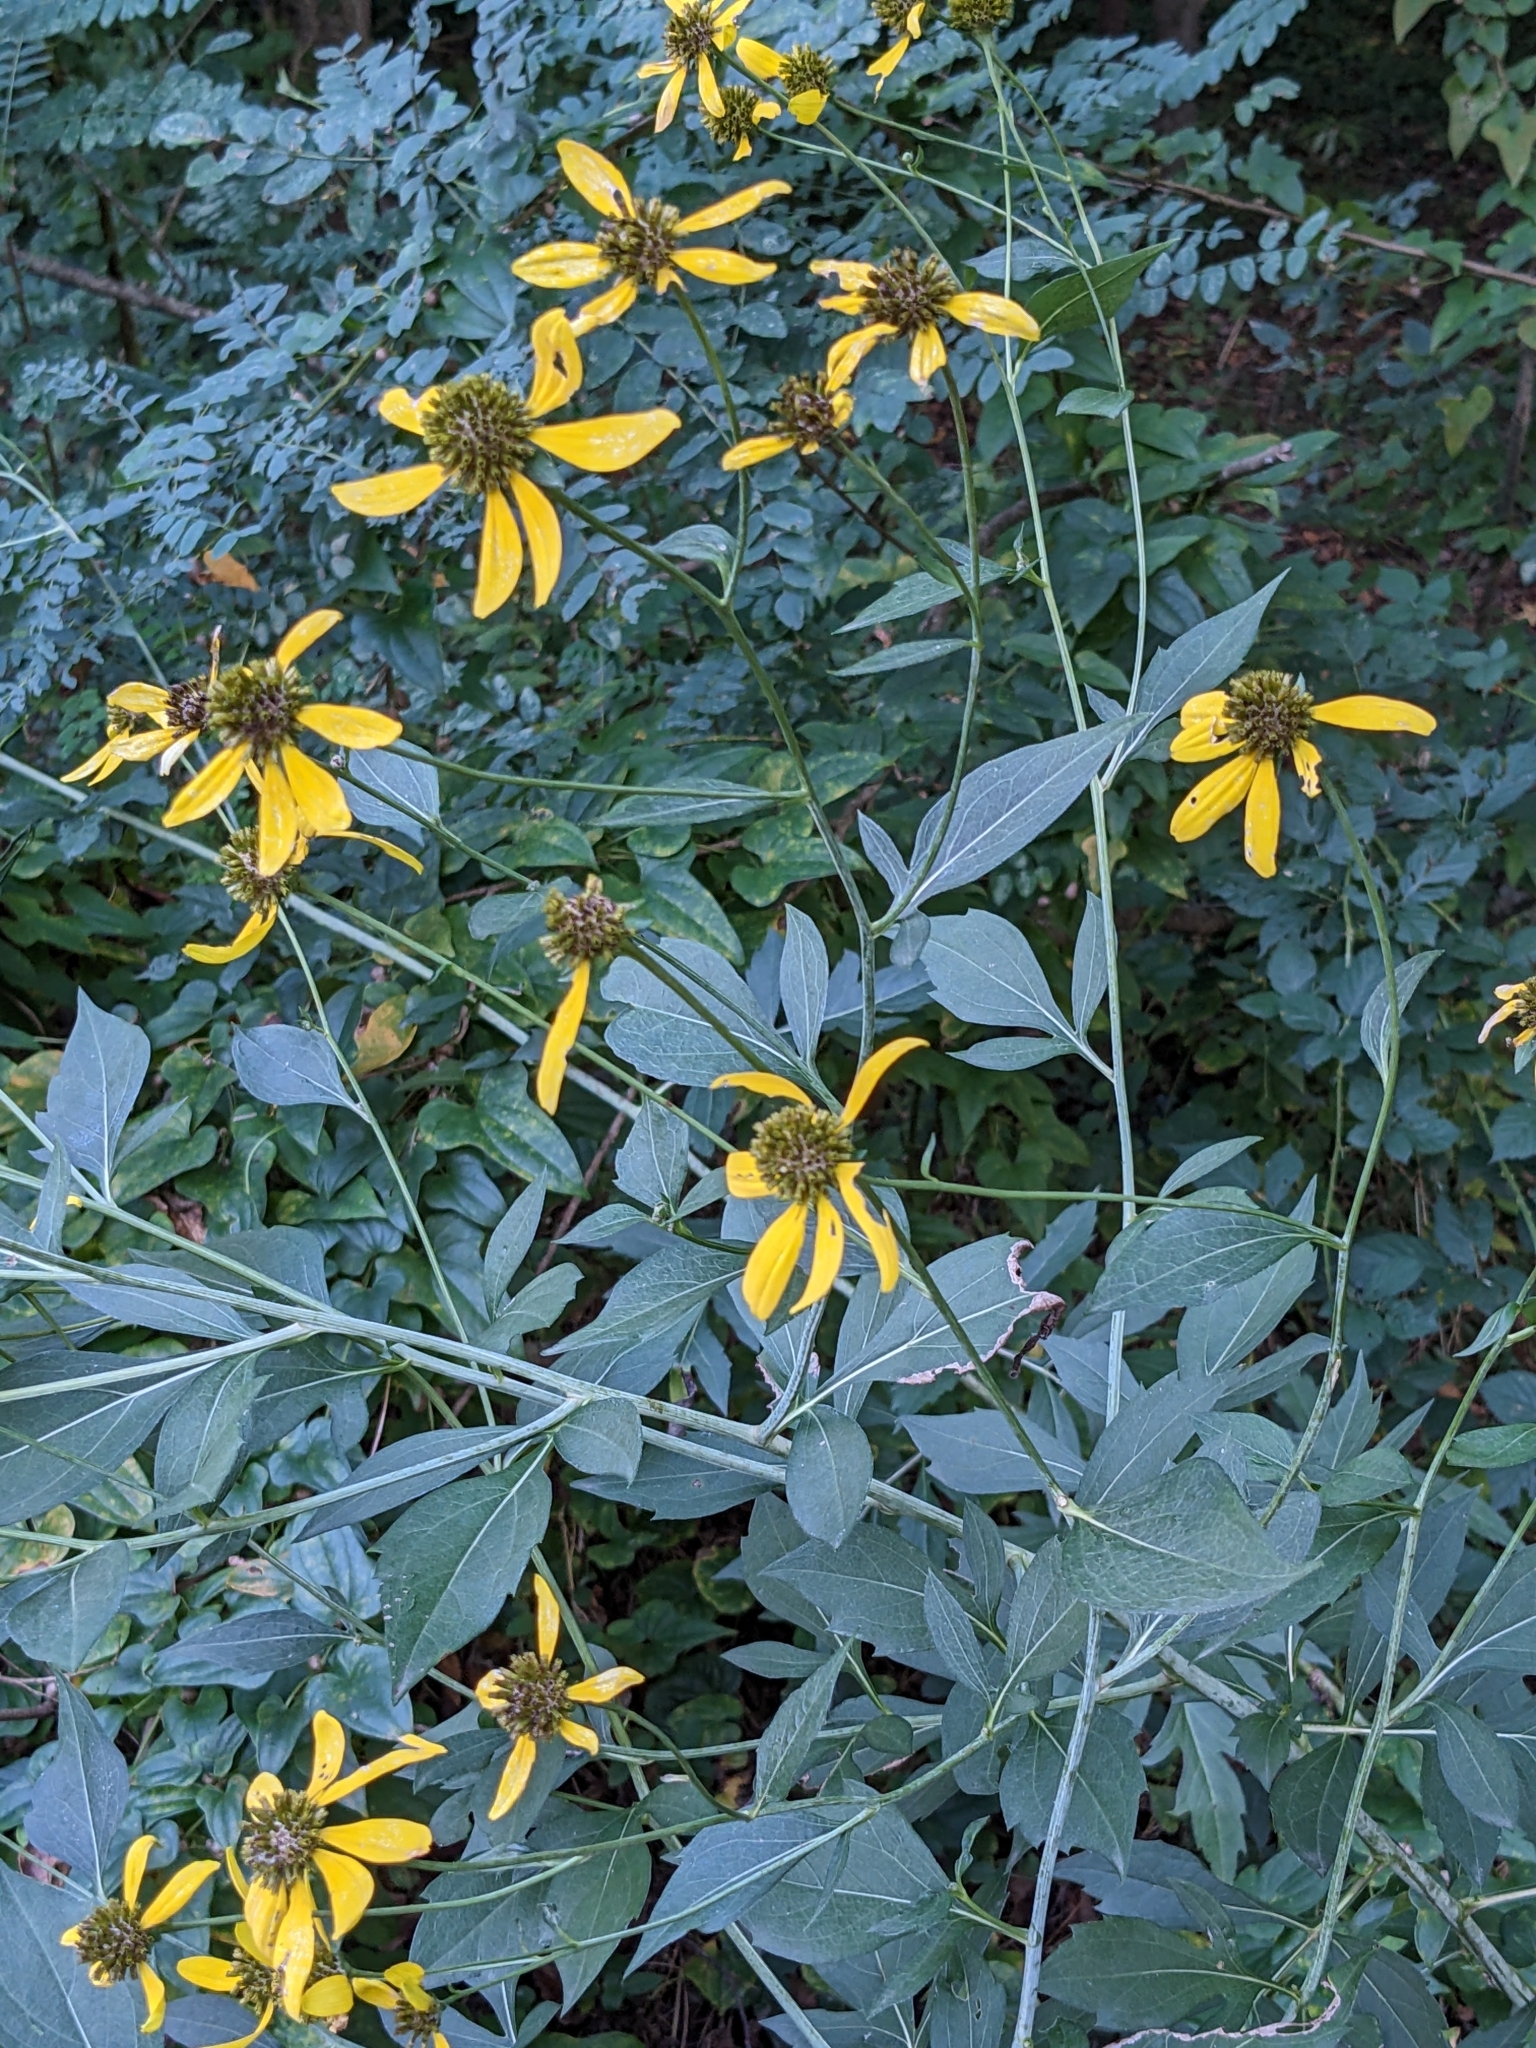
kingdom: Plantae
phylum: Tracheophyta
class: Magnoliopsida
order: Asterales
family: Asteraceae
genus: Rudbeckia
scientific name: Rudbeckia laciniata
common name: Coneflower
